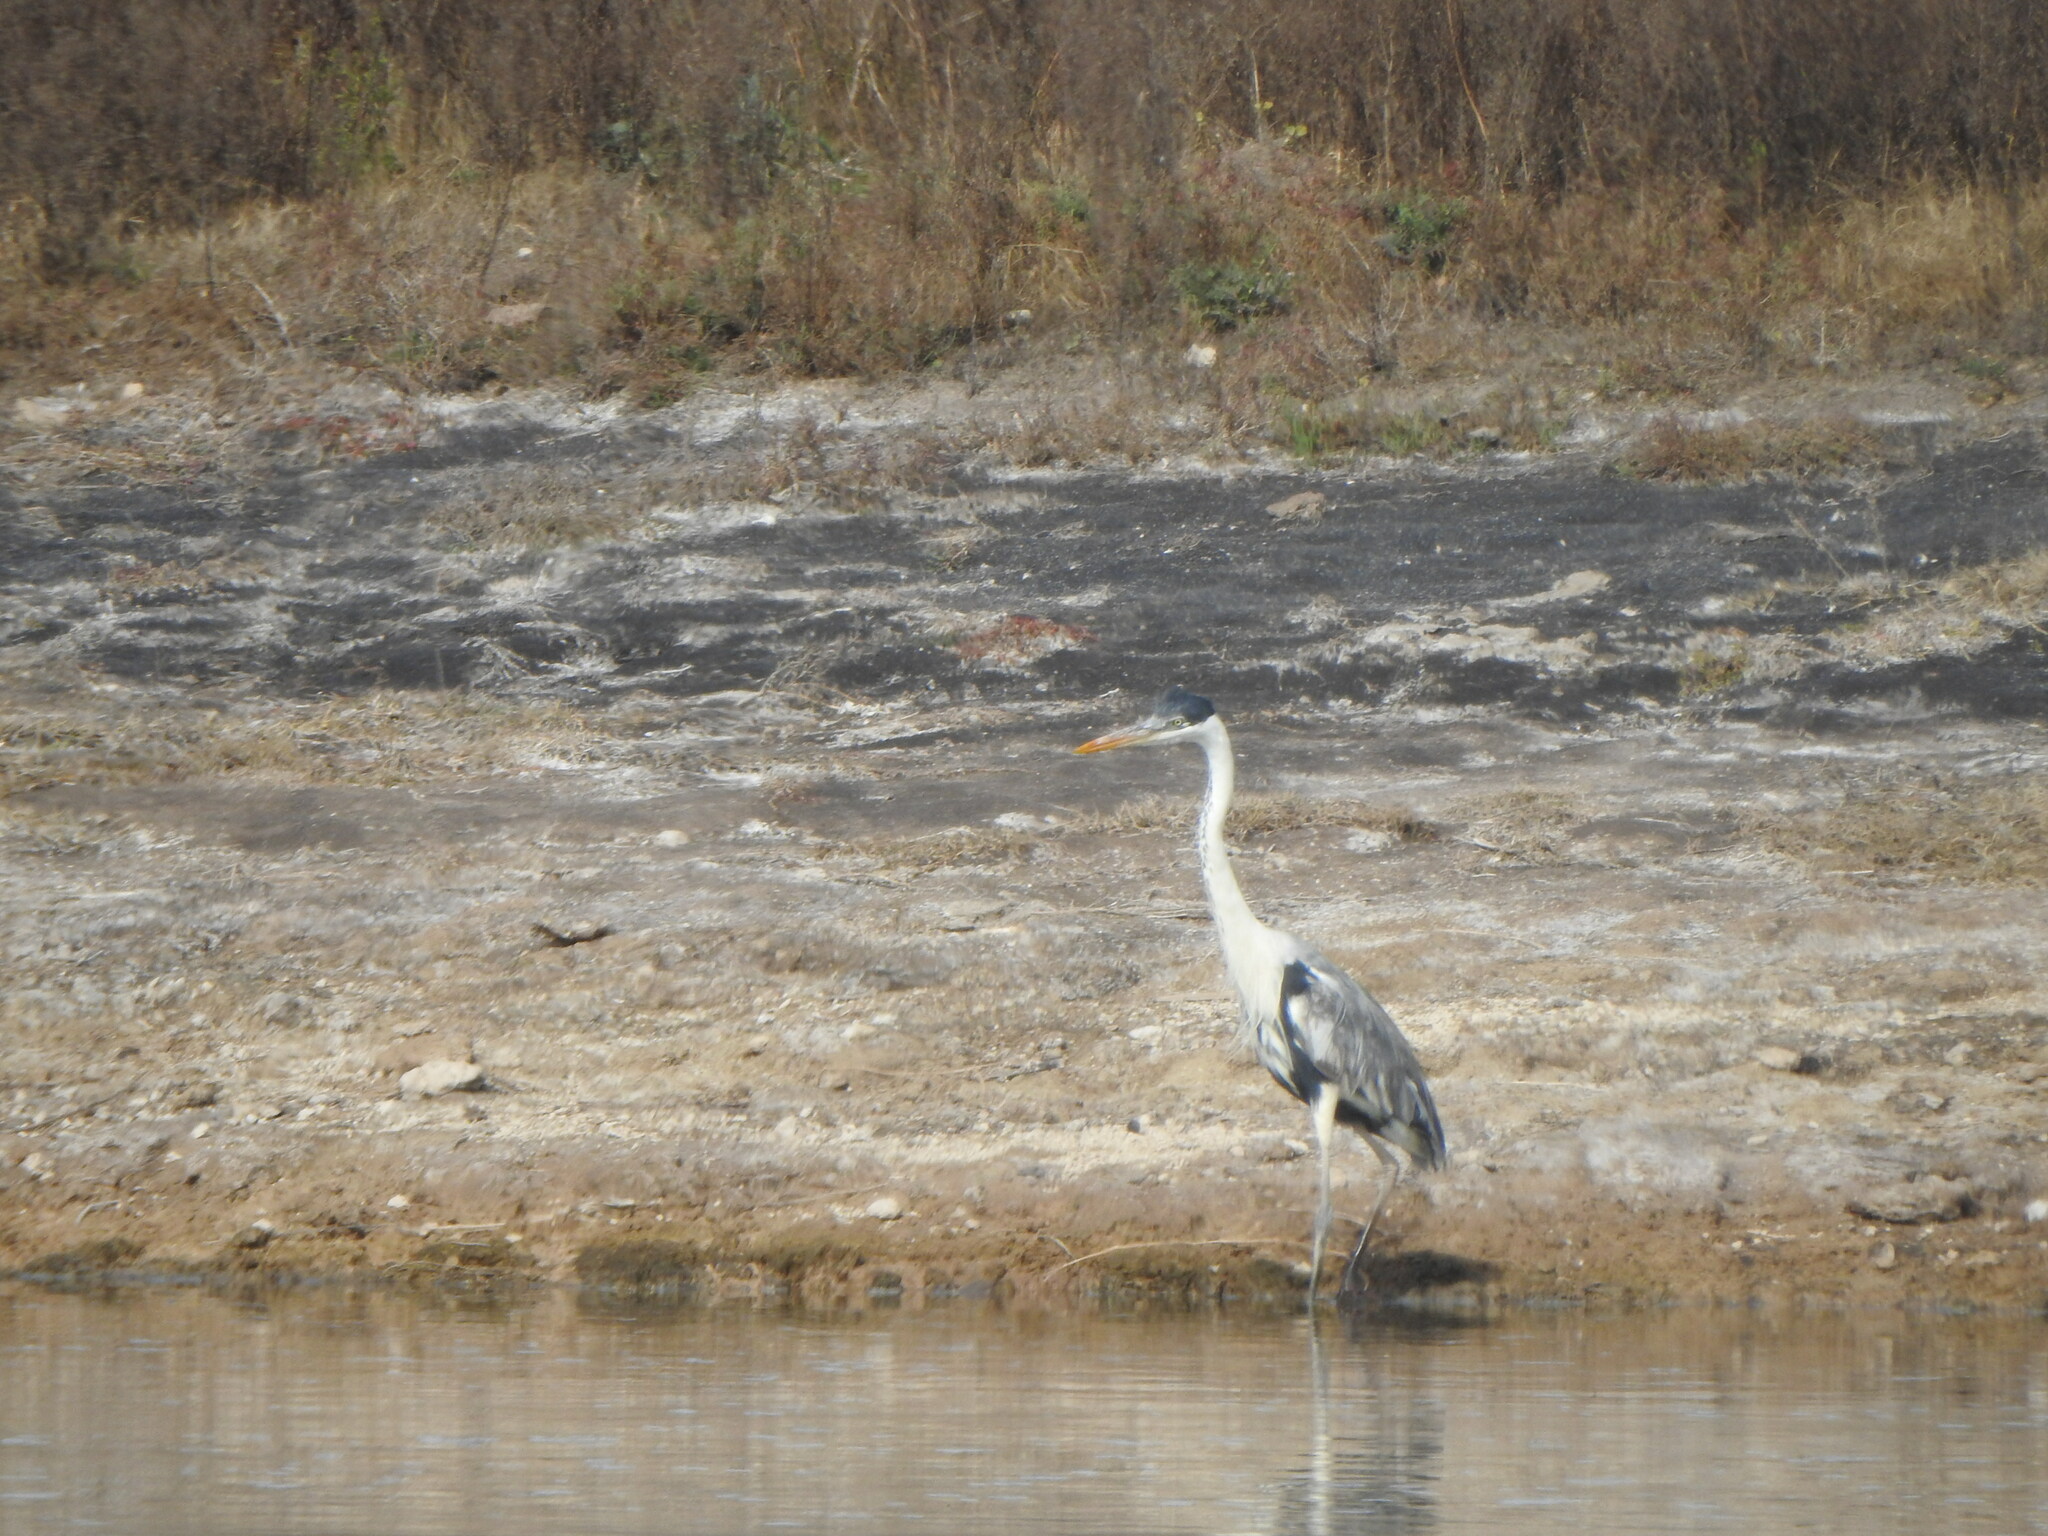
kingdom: Animalia
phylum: Chordata
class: Aves
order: Pelecaniformes
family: Ardeidae
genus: Ardea
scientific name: Ardea cocoi
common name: Cocoi heron
